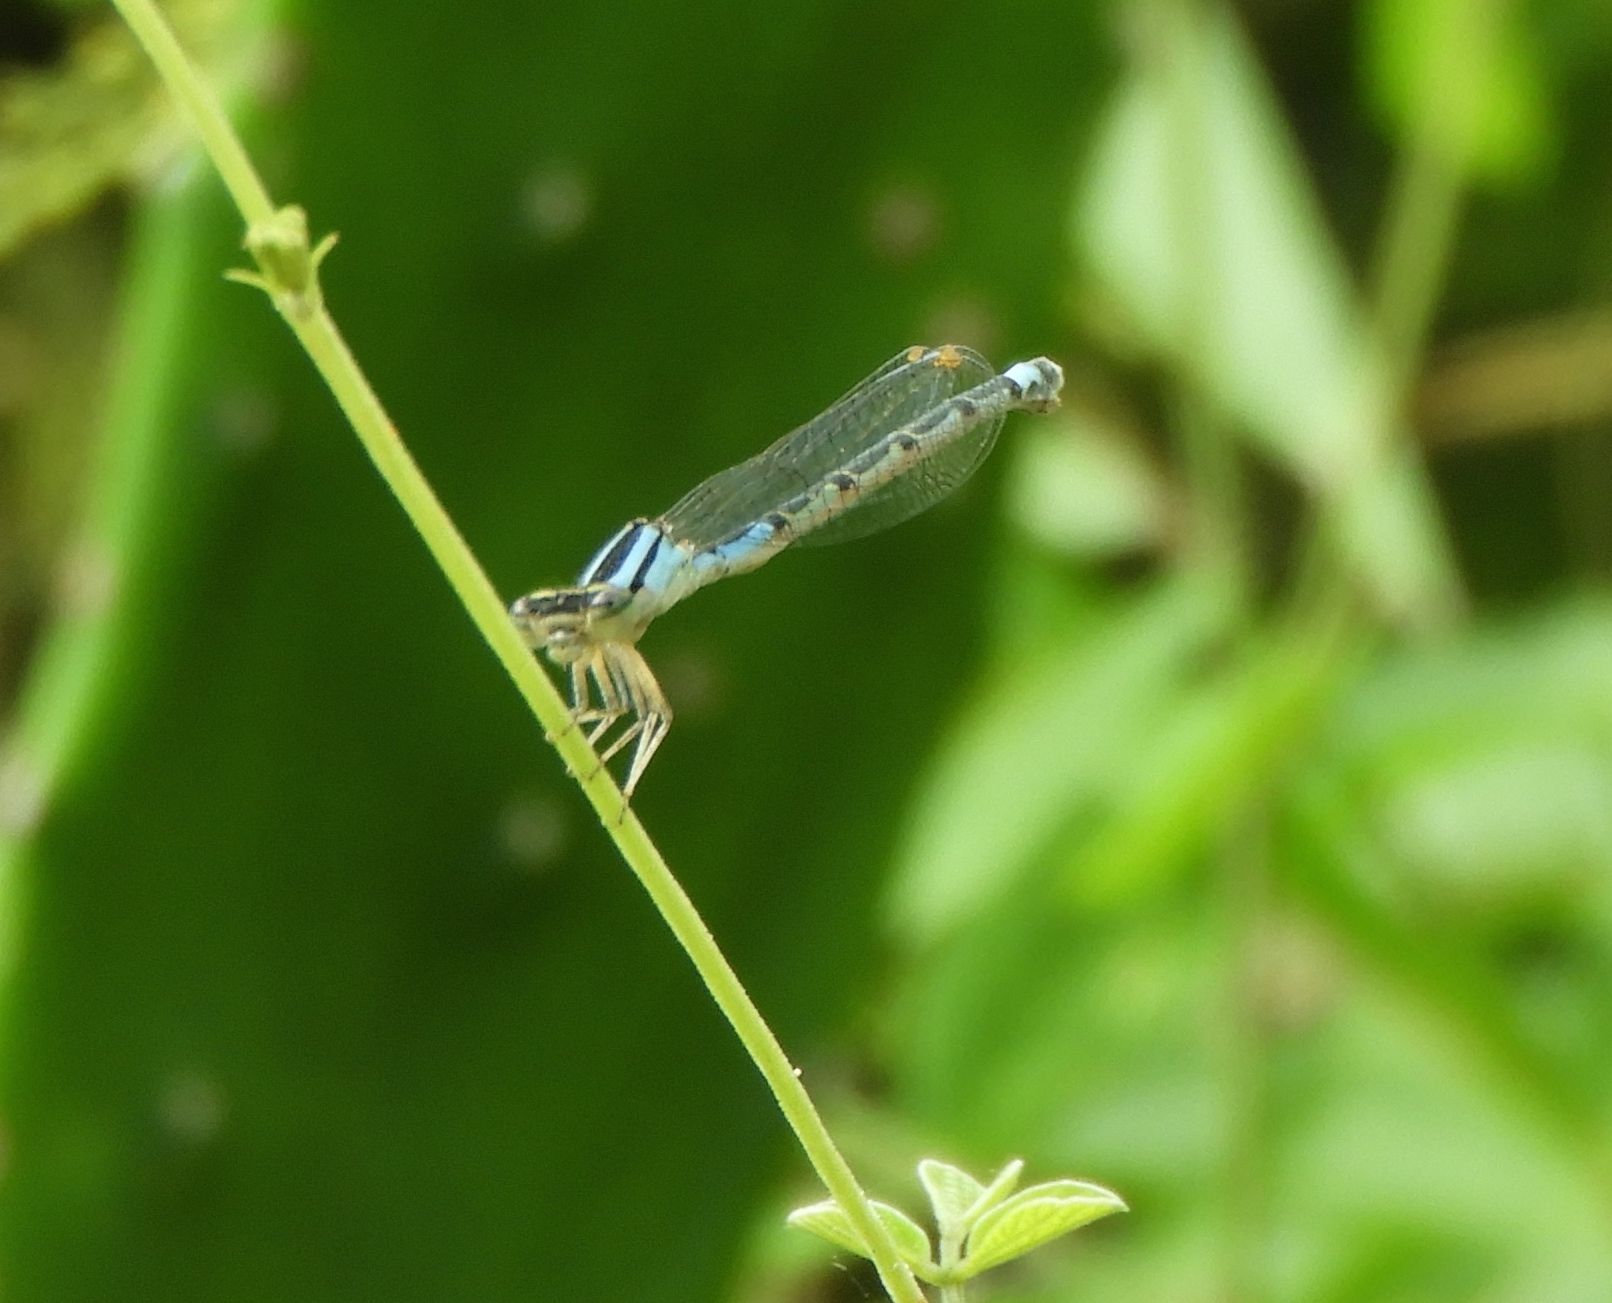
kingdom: Animalia
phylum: Arthropoda
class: Insecta
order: Odonata
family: Coenagrionidae
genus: Enallagma
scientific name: Enallagma novaehispaniae
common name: Neotropical bluet
